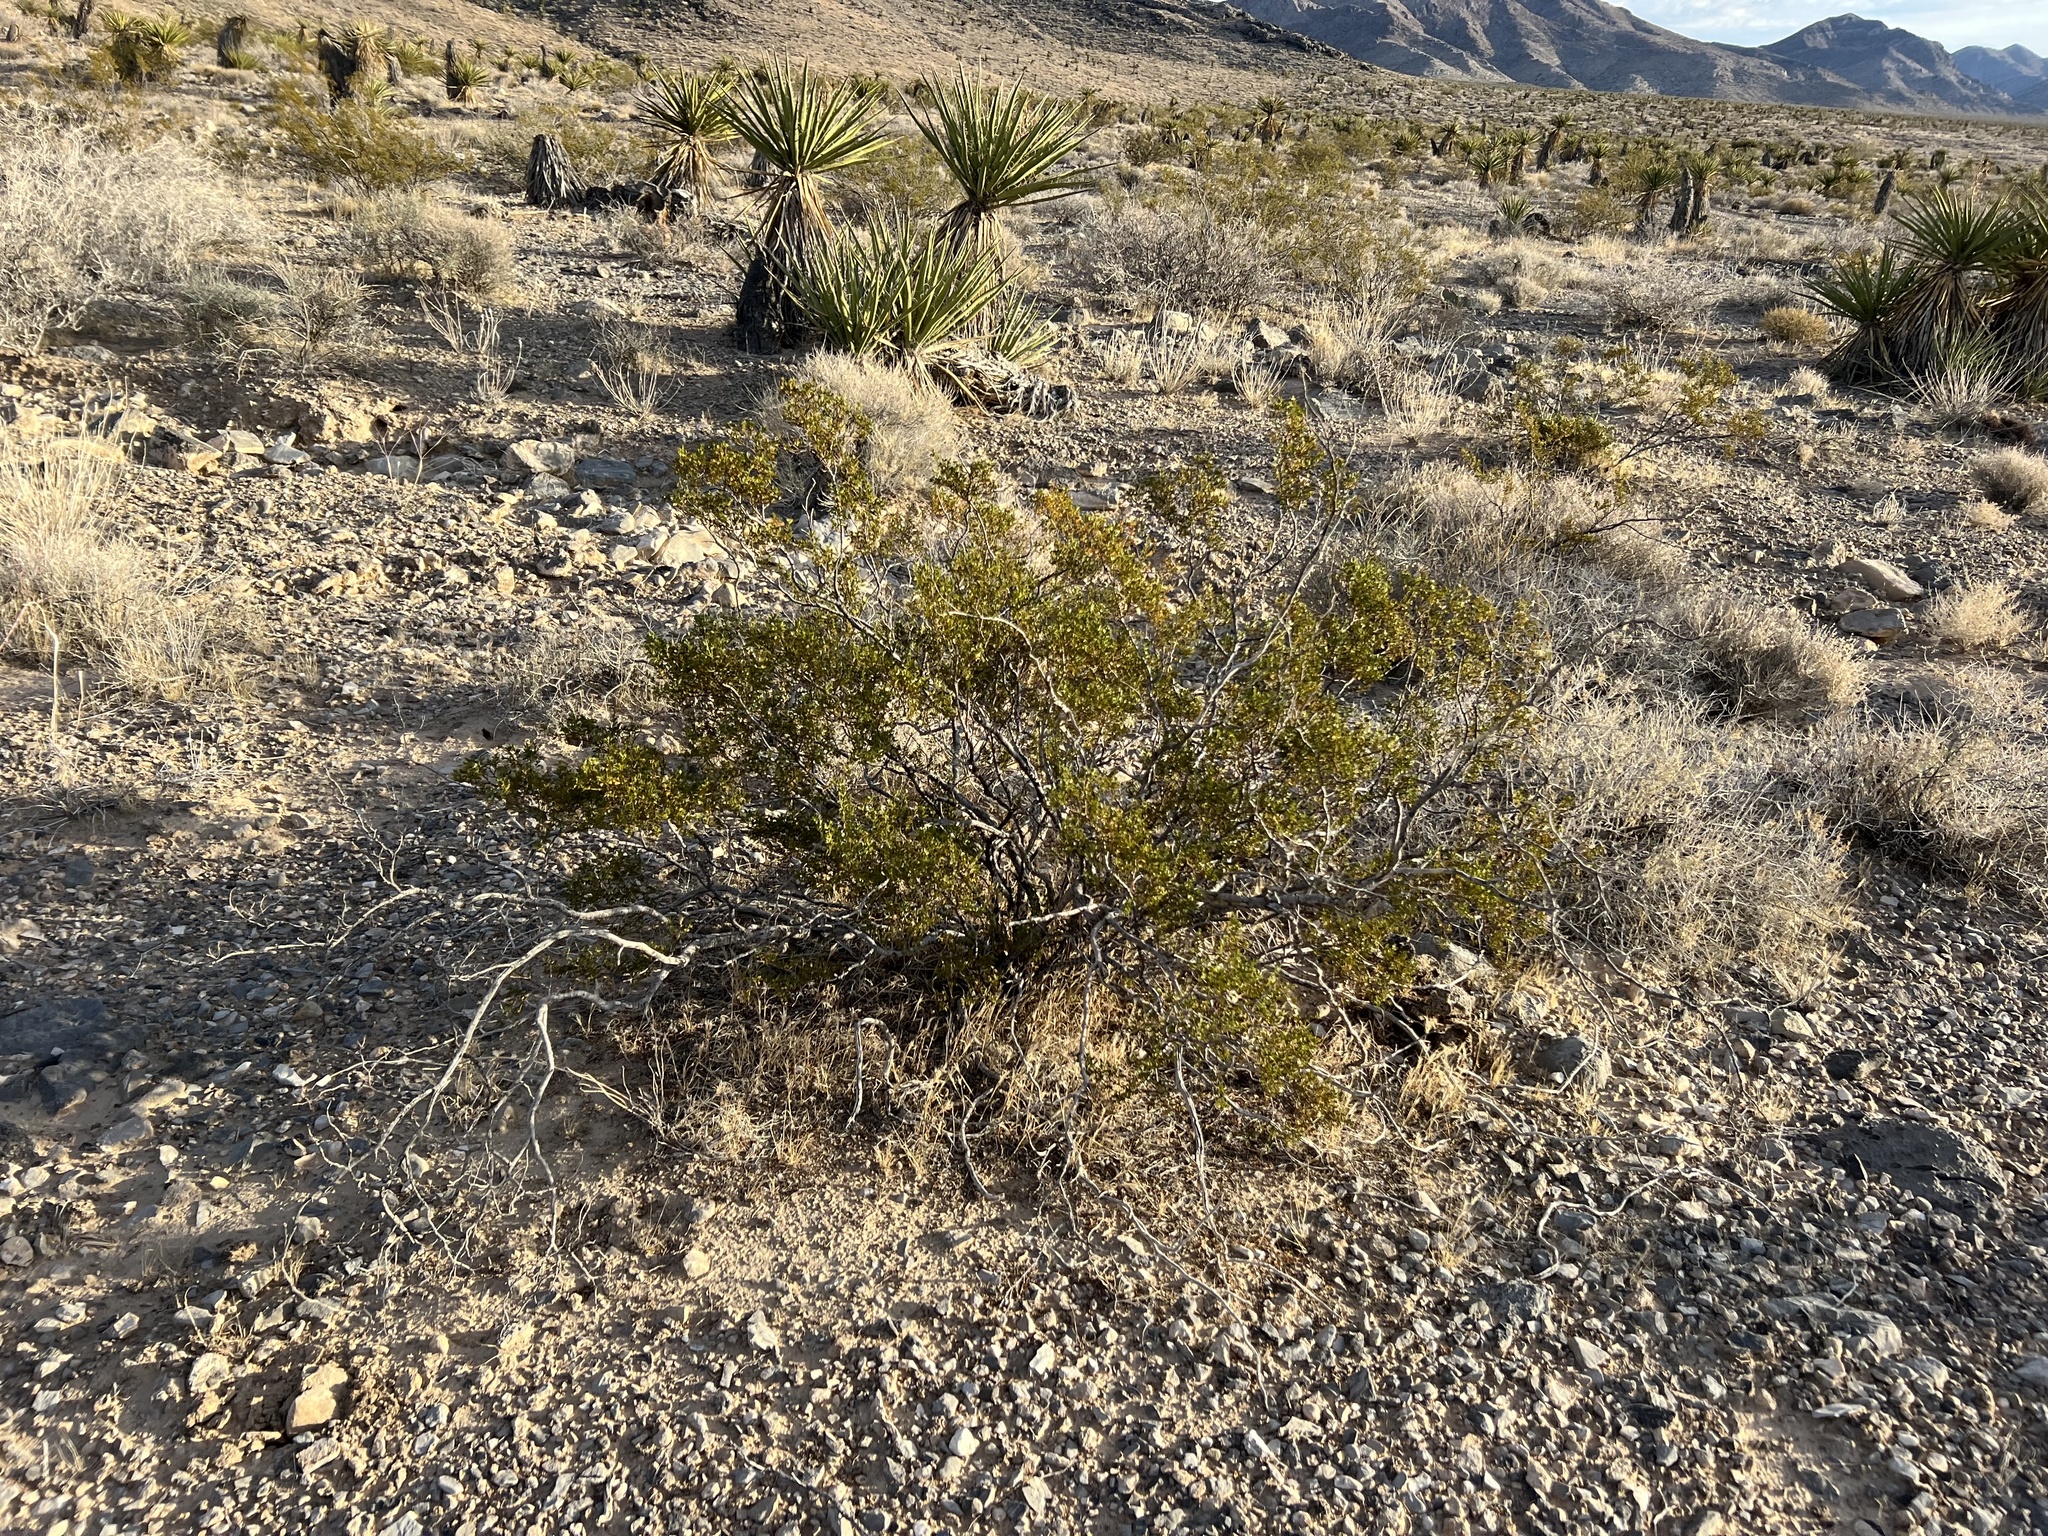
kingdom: Plantae
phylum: Tracheophyta
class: Magnoliopsida
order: Zygophyllales
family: Zygophyllaceae
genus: Larrea
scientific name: Larrea tridentata
